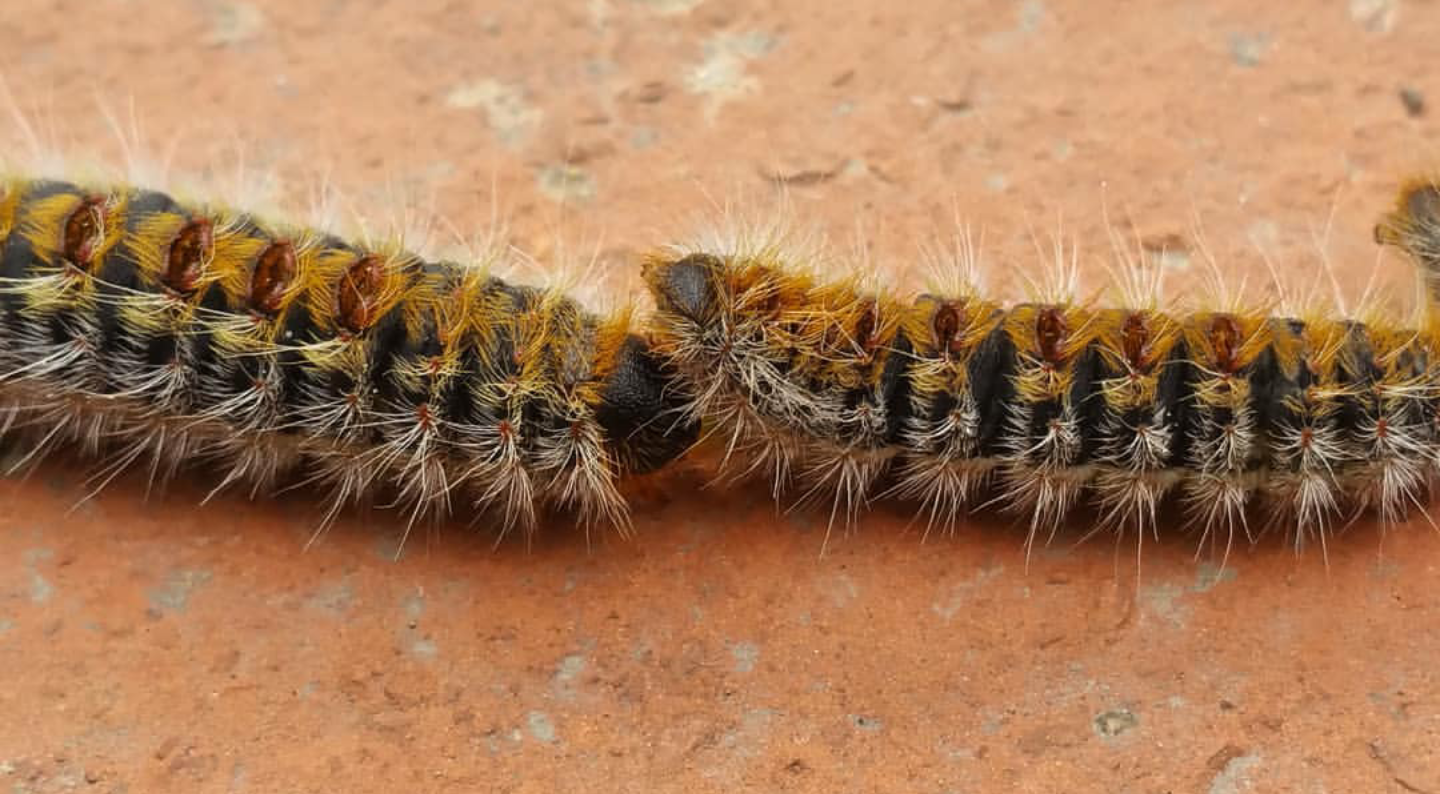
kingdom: Animalia
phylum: Arthropoda
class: Insecta
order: Lepidoptera
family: Notodontidae
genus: Thaumetopoea
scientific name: Thaumetopoea pityocampa
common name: Pine processionary
